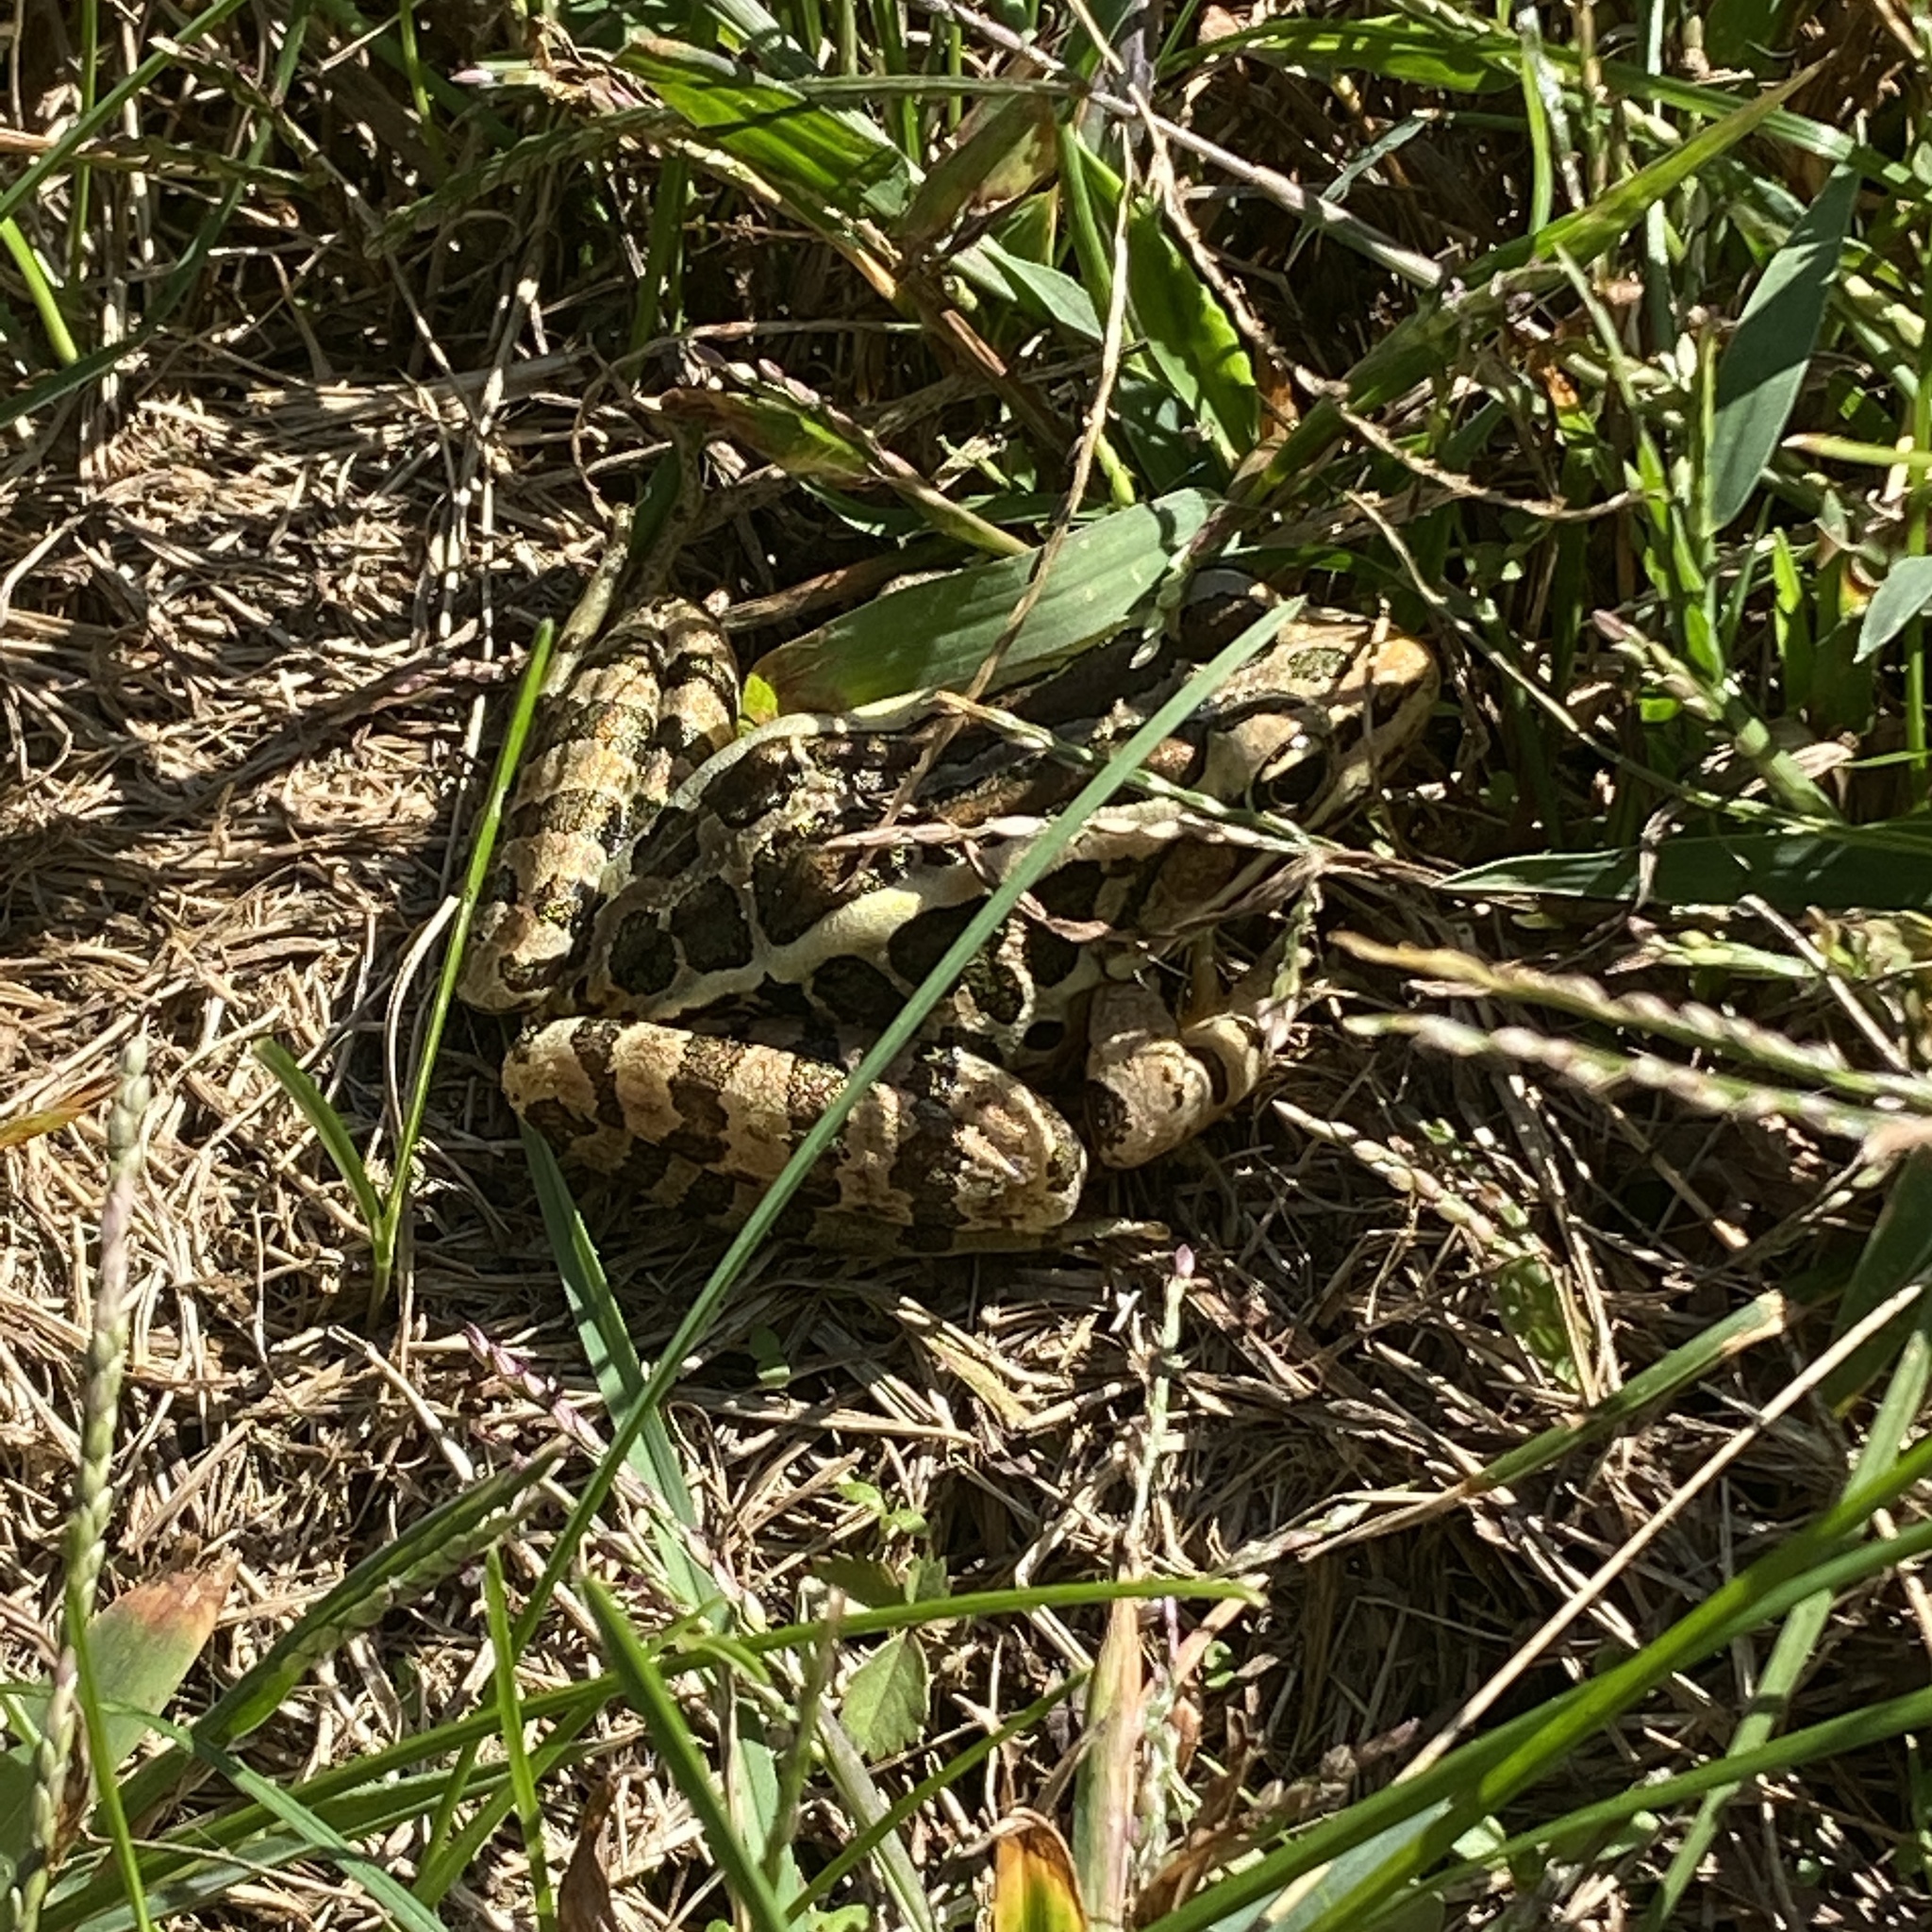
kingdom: Animalia
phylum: Chordata
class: Amphibia
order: Anura
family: Ranidae
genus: Lithobates
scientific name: Lithobates palustris
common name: Pickerel frog
